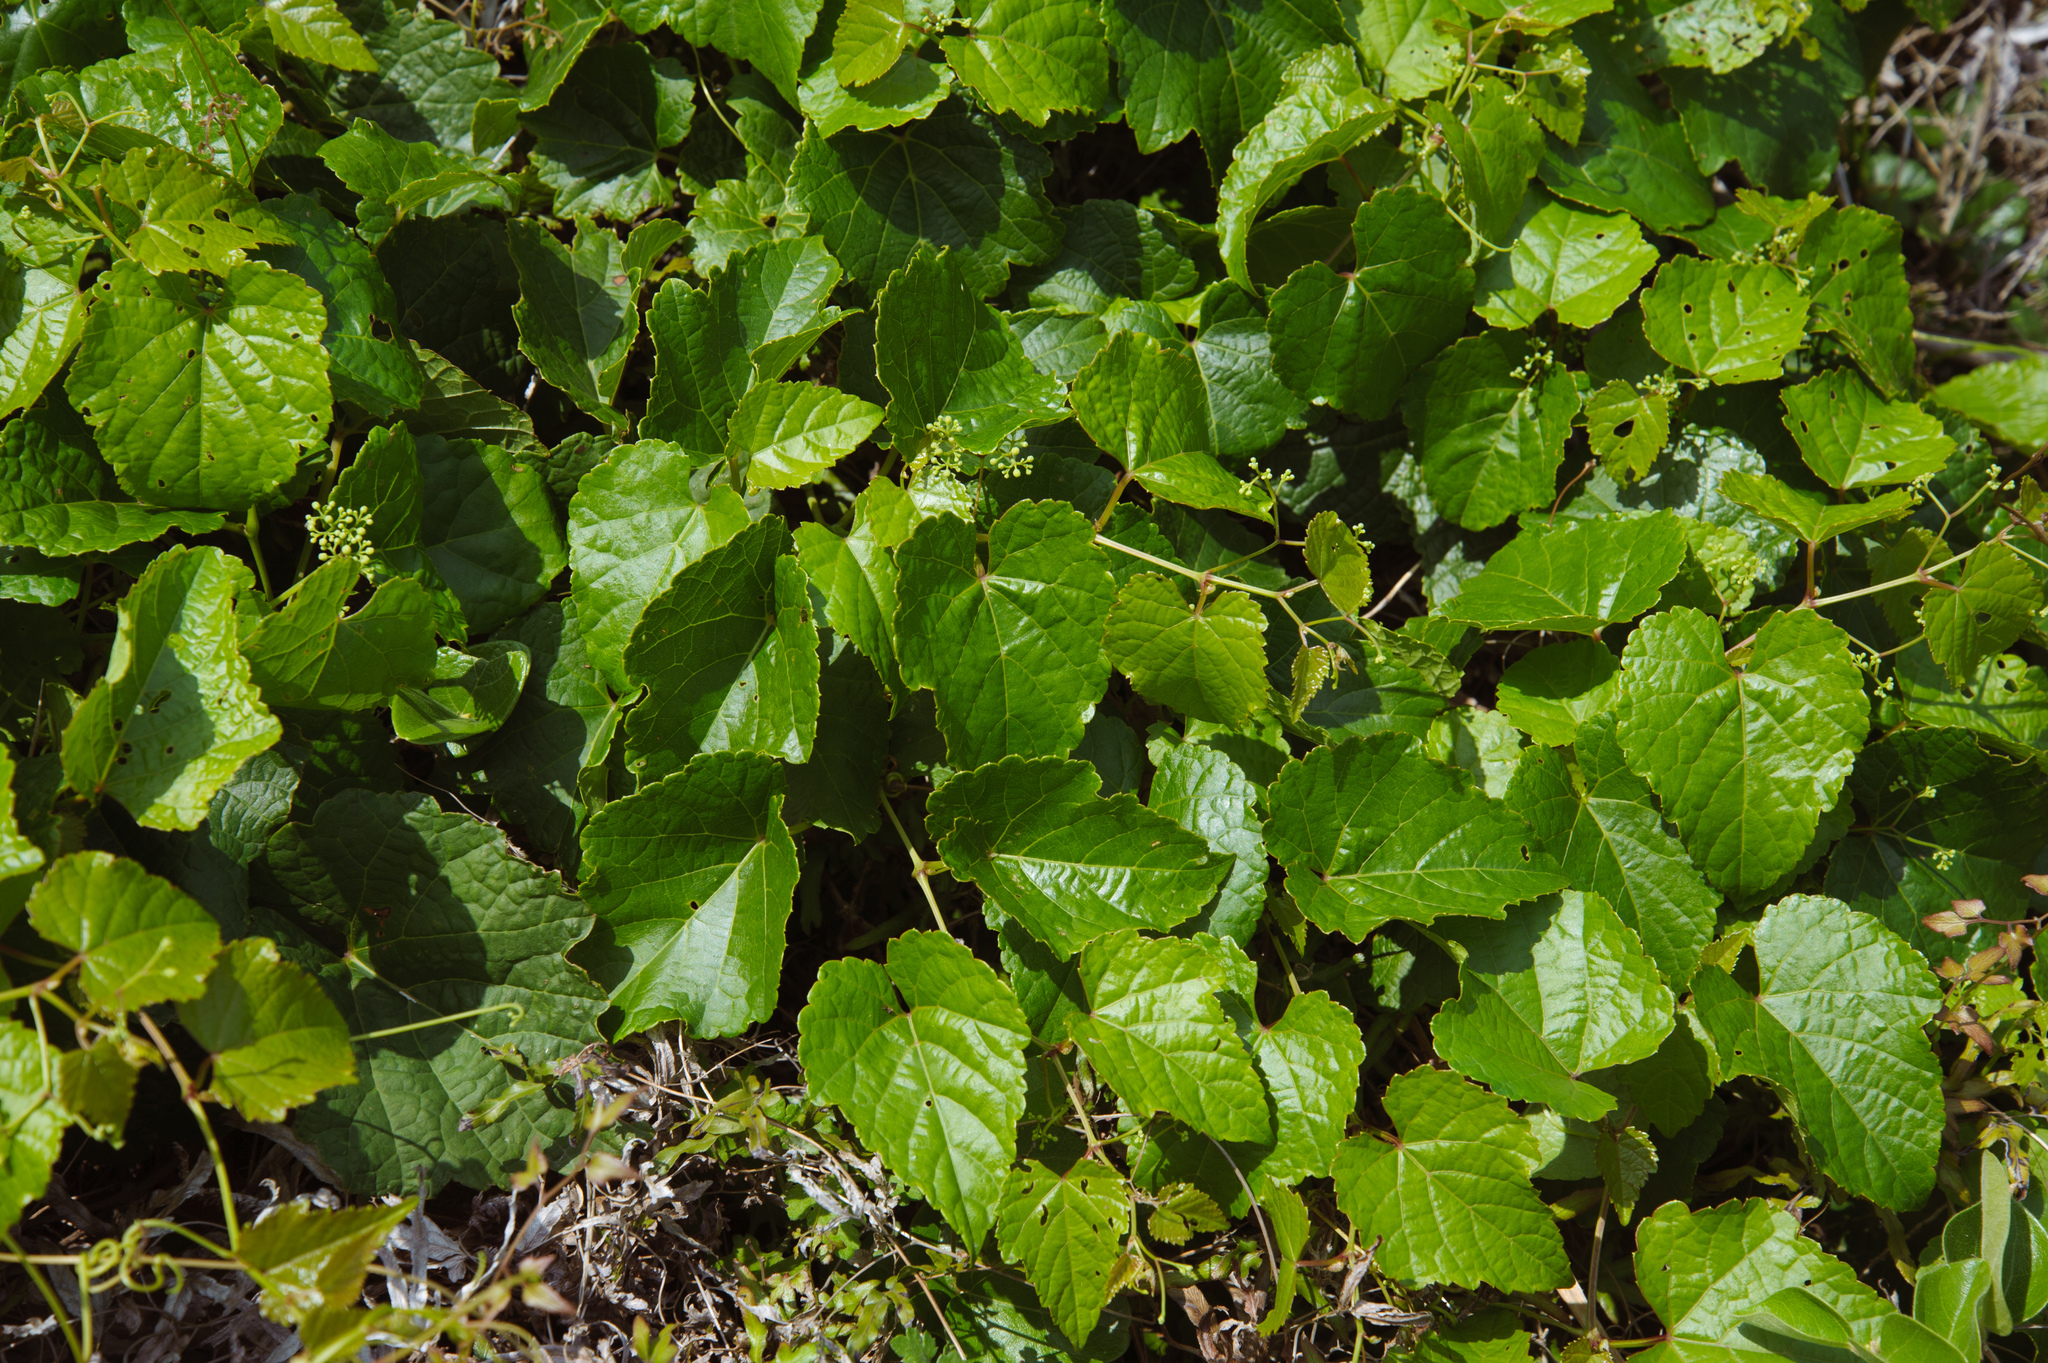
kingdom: Plantae
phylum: Tracheophyta
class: Magnoliopsida
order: Vitales
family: Vitaceae
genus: Ampelopsis
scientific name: Ampelopsis glandulosa
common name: Amur peppervine
